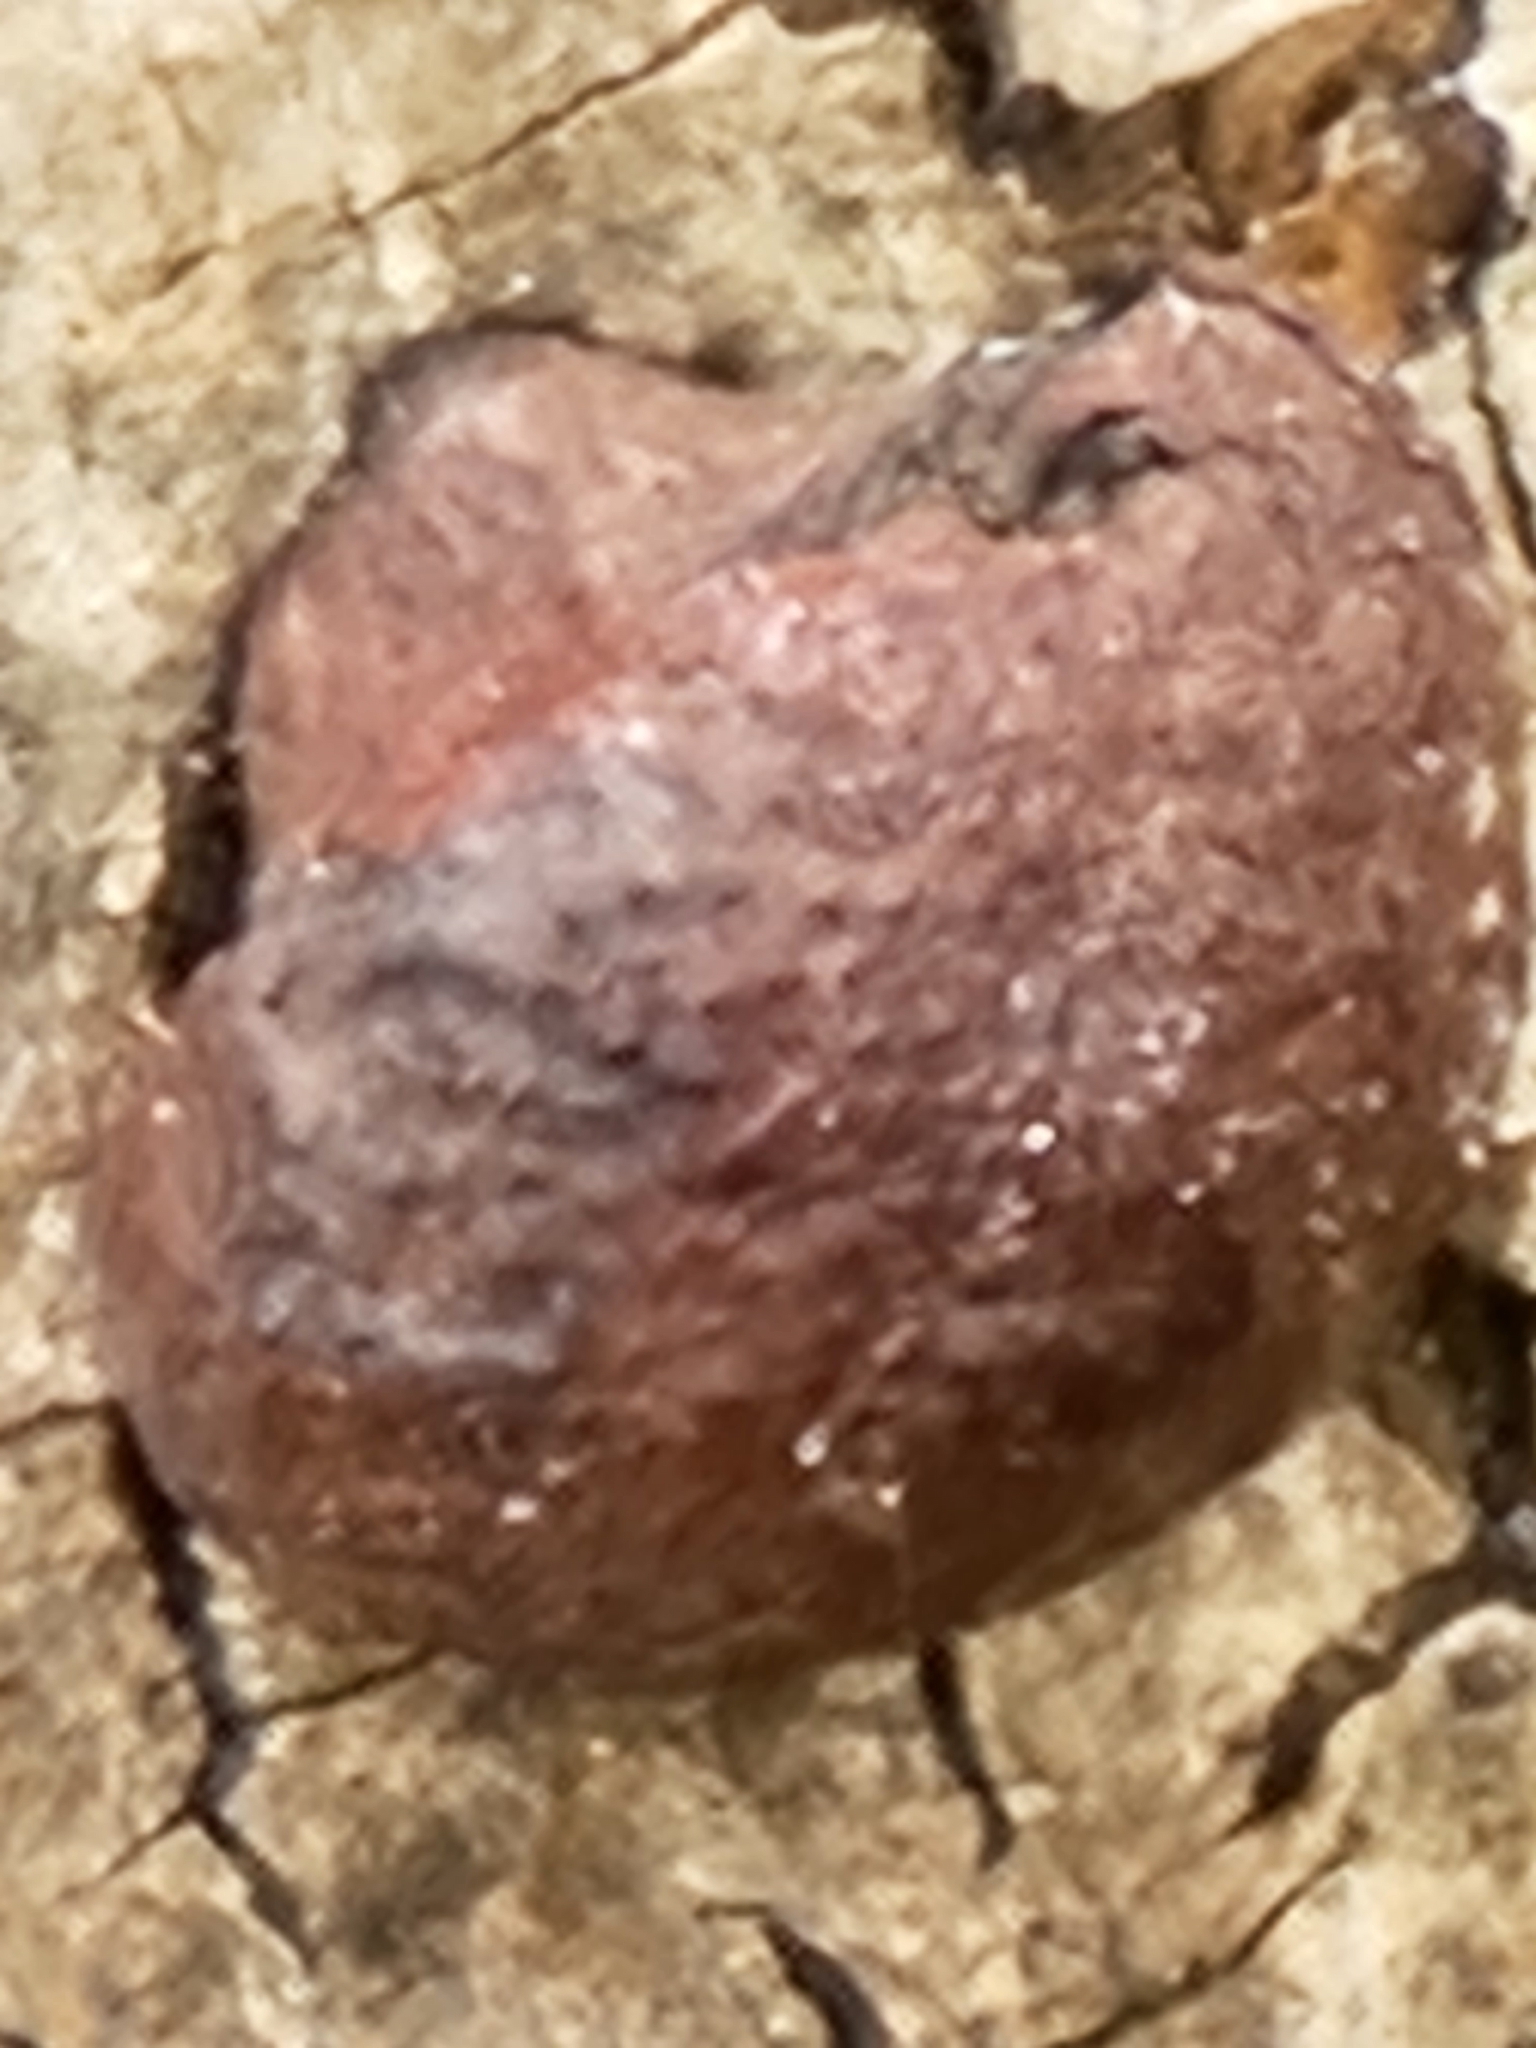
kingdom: Fungi
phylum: Ascomycota
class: Sordariomycetes
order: Xylariales
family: Hypoxylaceae
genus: Daldinia
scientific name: Daldinia childiae
